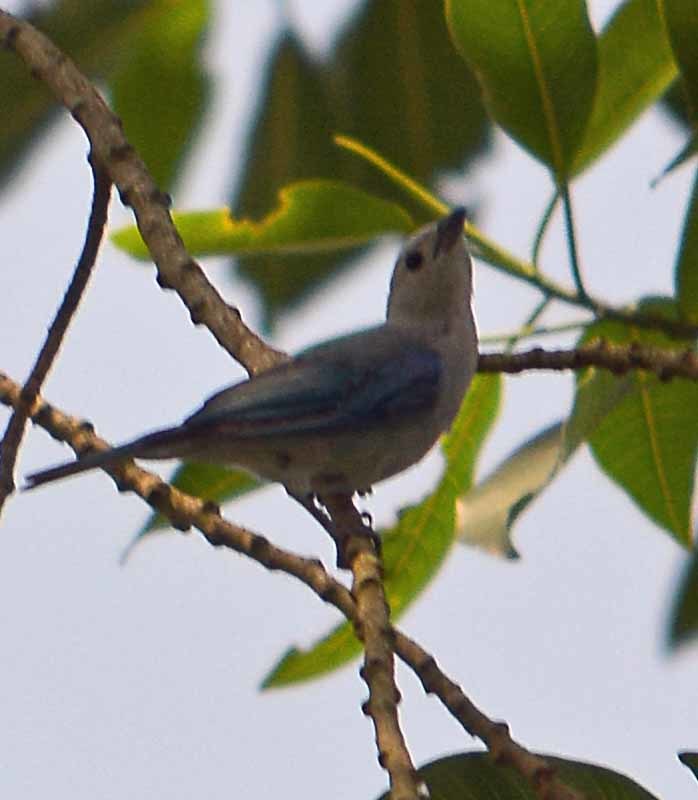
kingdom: Animalia
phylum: Chordata
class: Aves
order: Passeriformes
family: Thraupidae
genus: Thraupis
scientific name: Thraupis episcopus
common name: Blue-grey tanager
